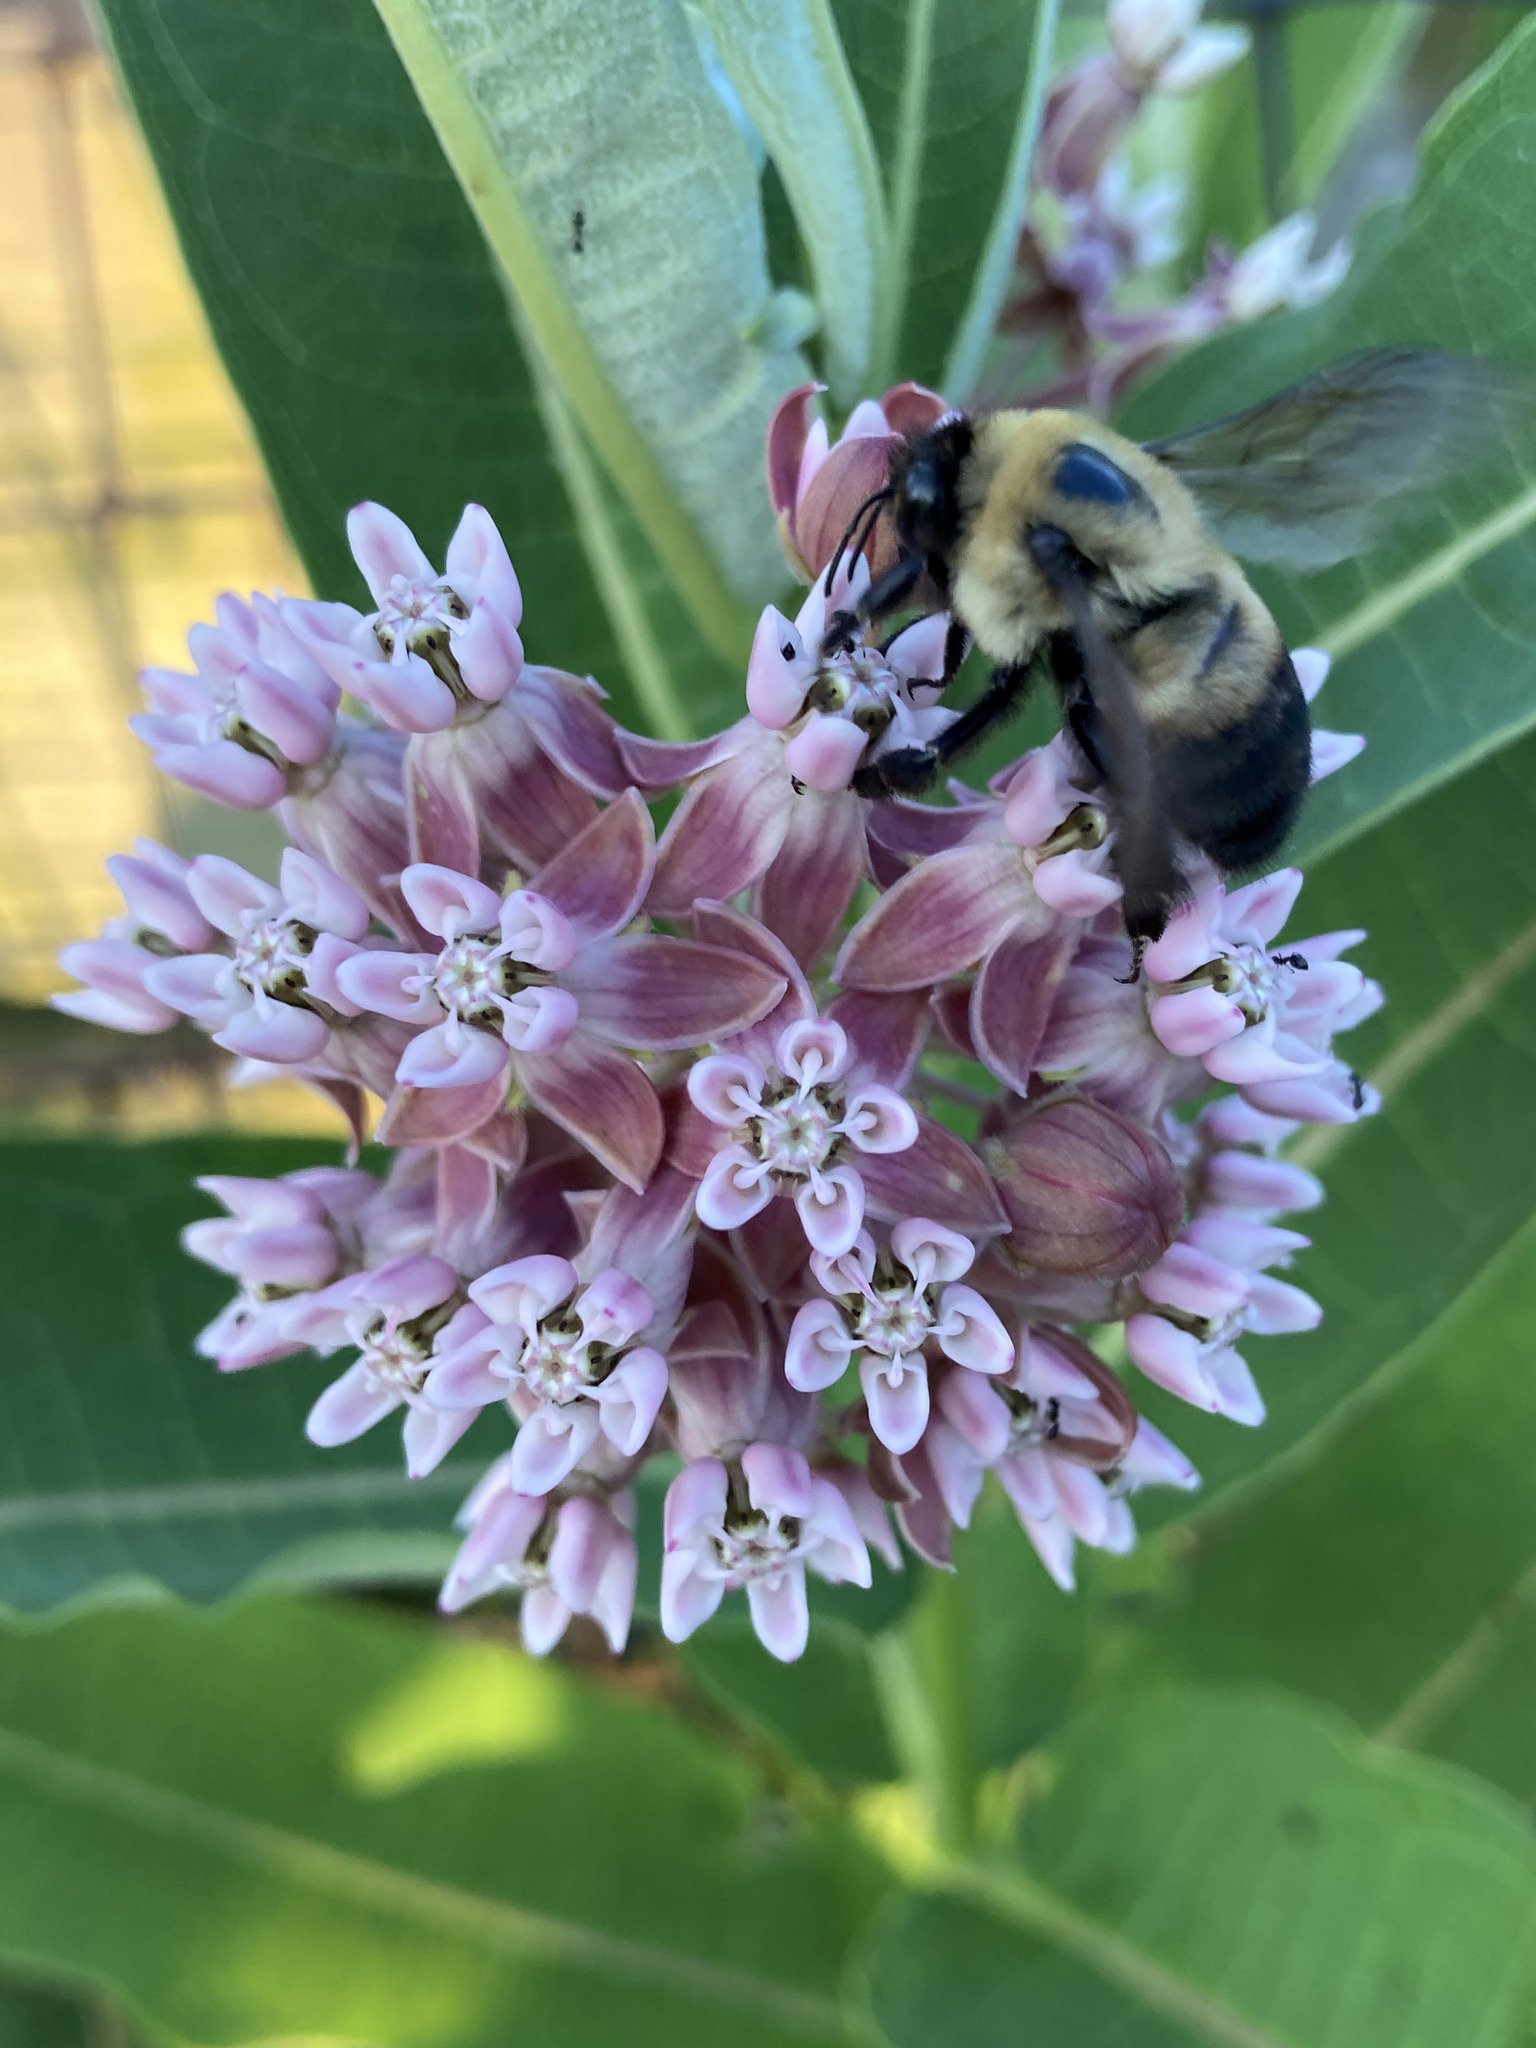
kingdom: Animalia
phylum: Arthropoda
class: Insecta
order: Hymenoptera
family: Apidae
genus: Bombus
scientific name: Bombus griseocollis
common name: Brown-belted bumble bee
